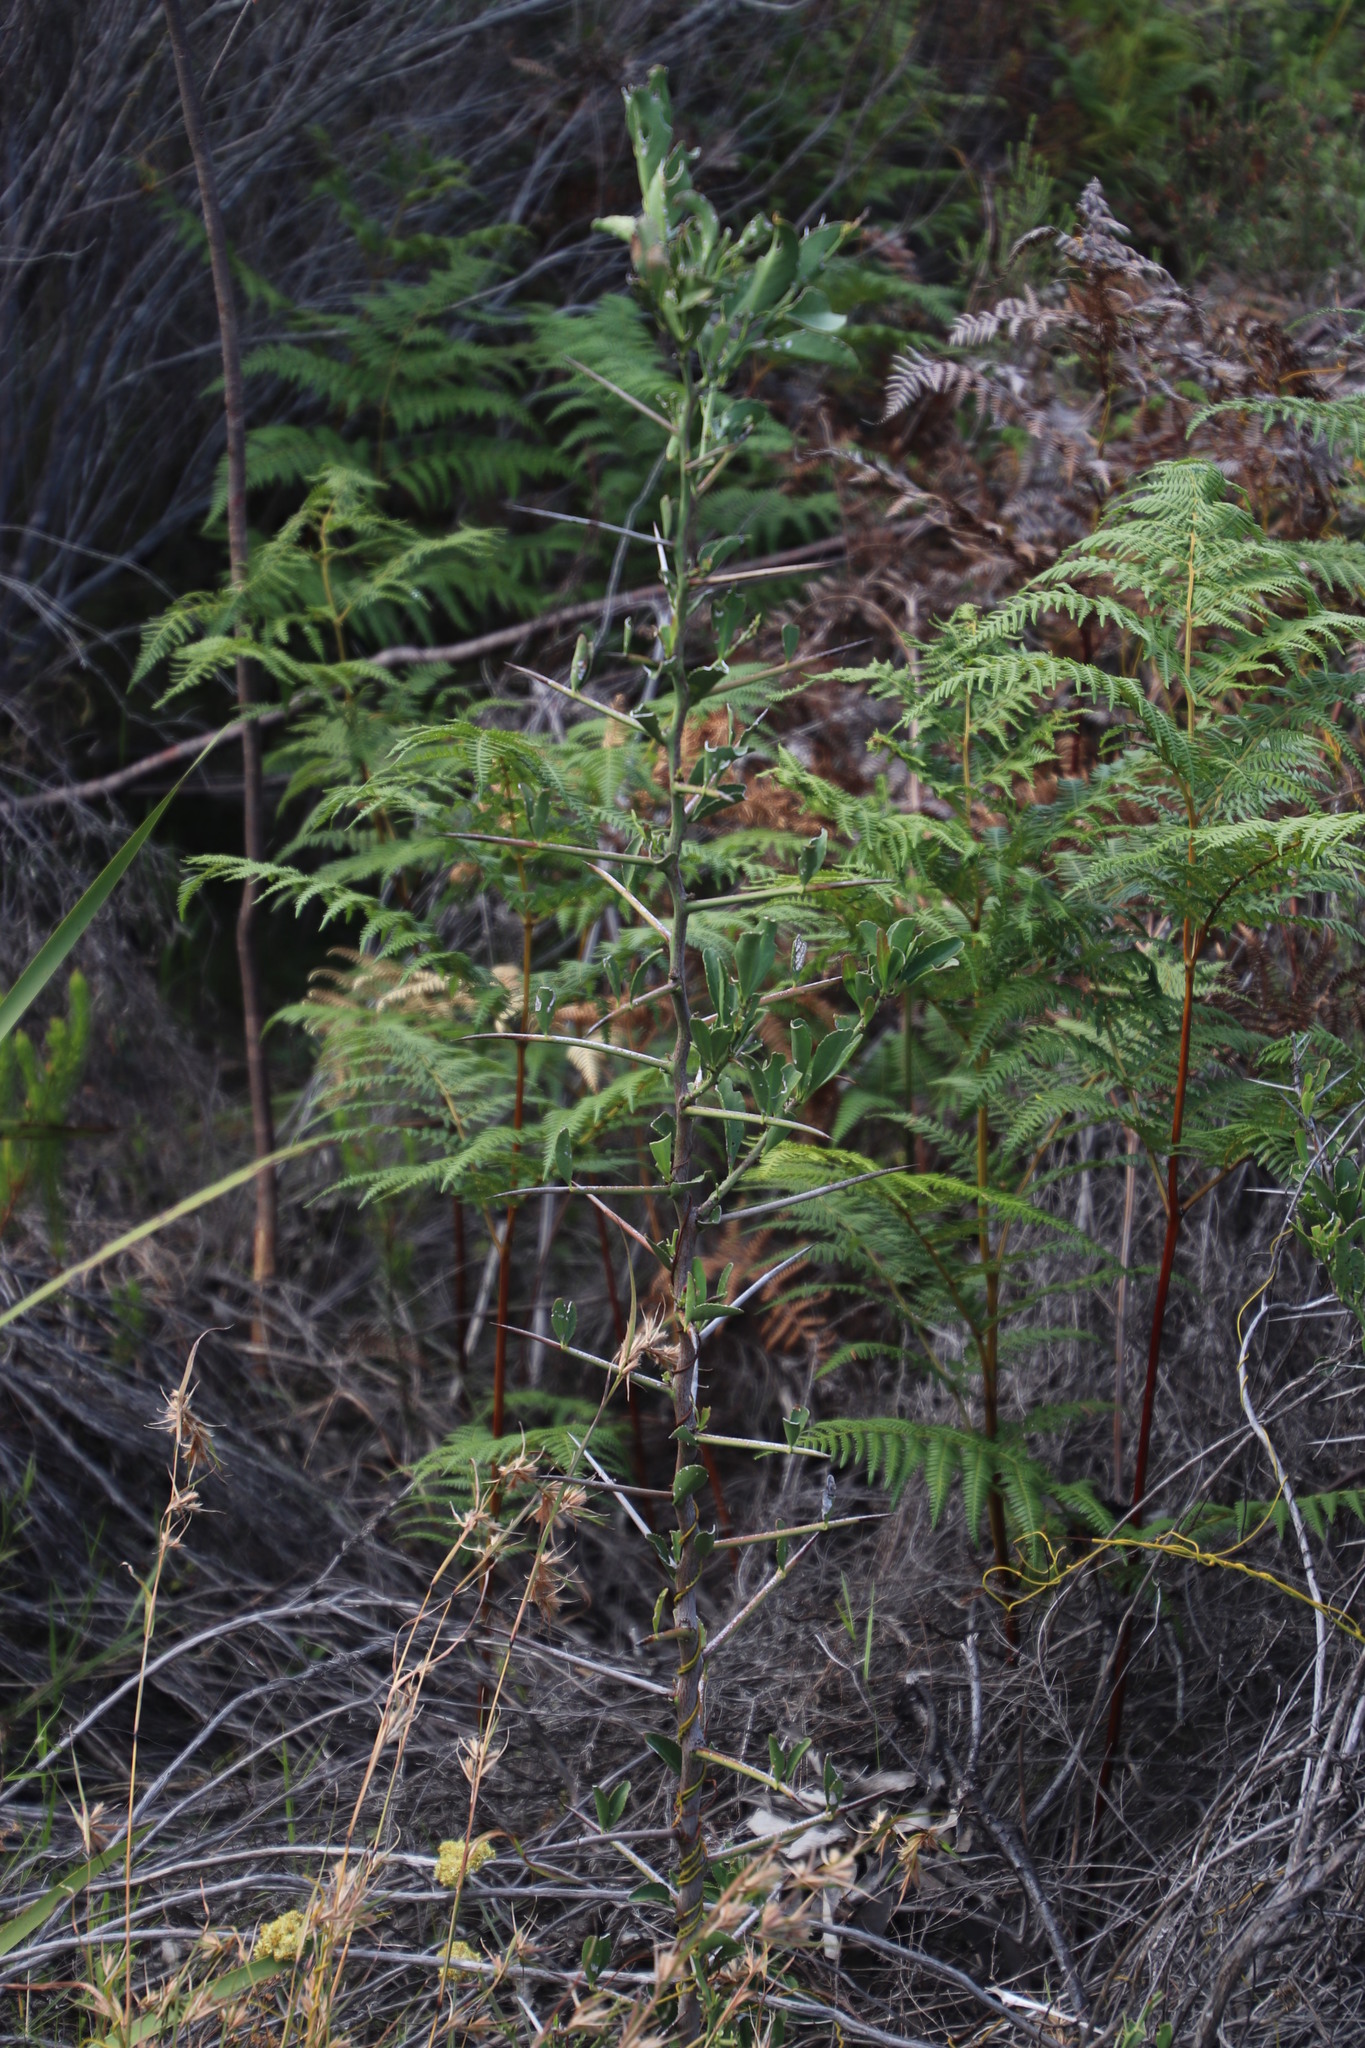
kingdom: Plantae
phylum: Tracheophyta
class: Magnoliopsida
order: Celastrales
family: Celastraceae
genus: Gymnosporia
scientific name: Gymnosporia buxifolia
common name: Common spike-thorn
